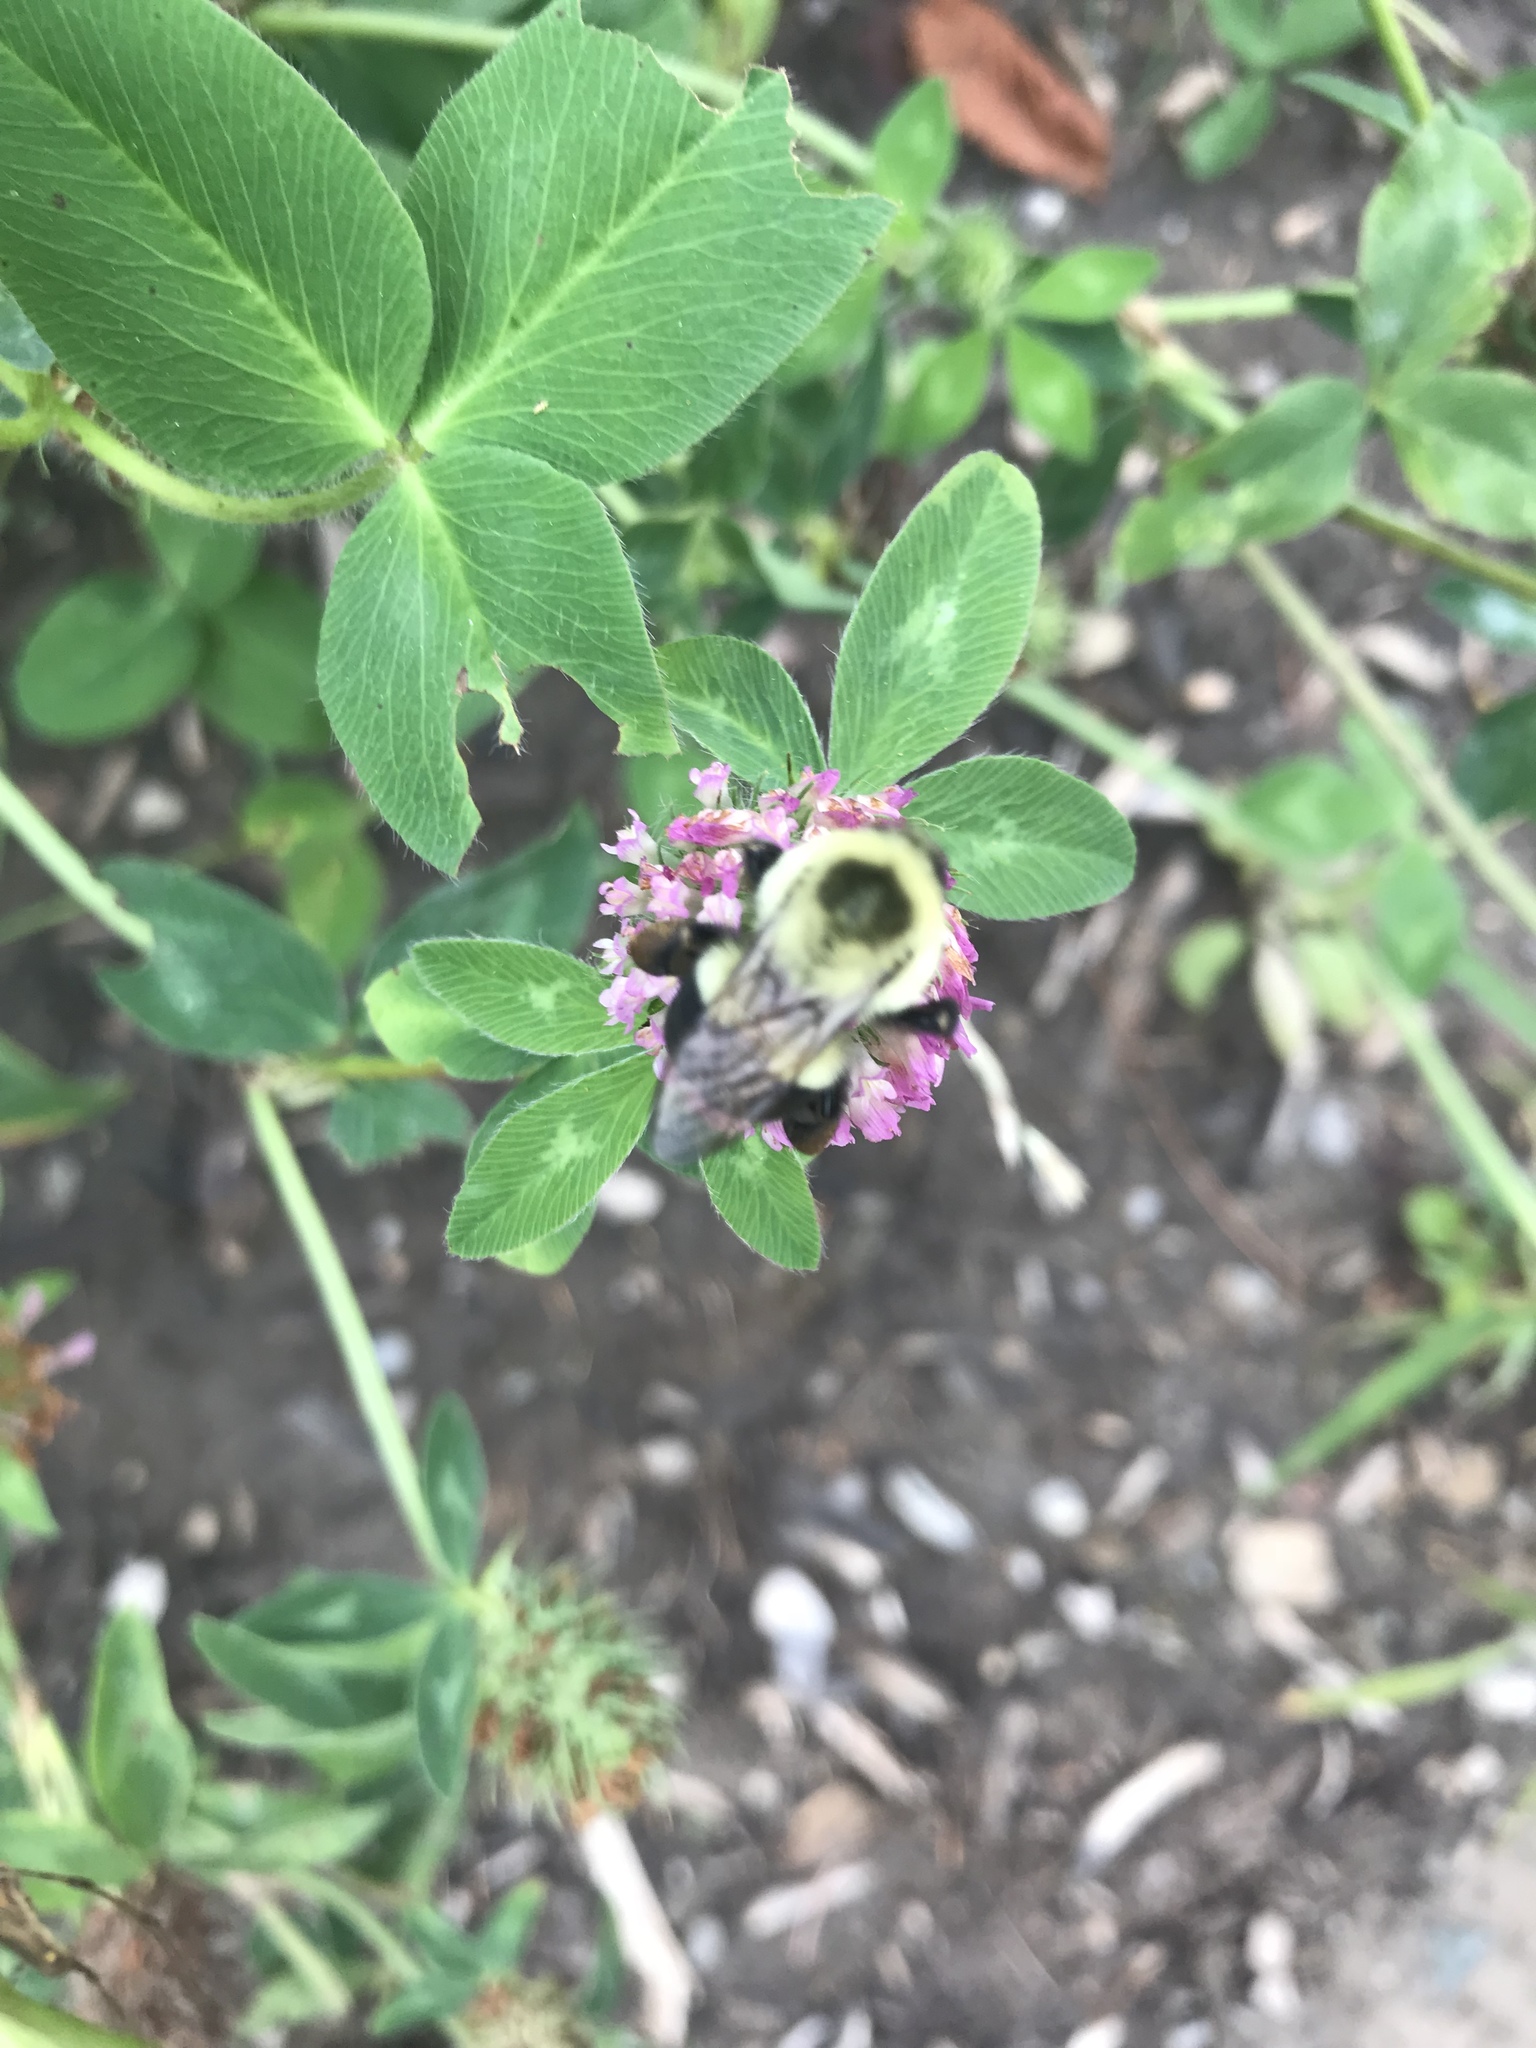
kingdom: Animalia
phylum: Arthropoda
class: Insecta
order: Hymenoptera
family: Apidae
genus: Bombus
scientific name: Bombus impatiens
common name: Common eastern bumble bee
